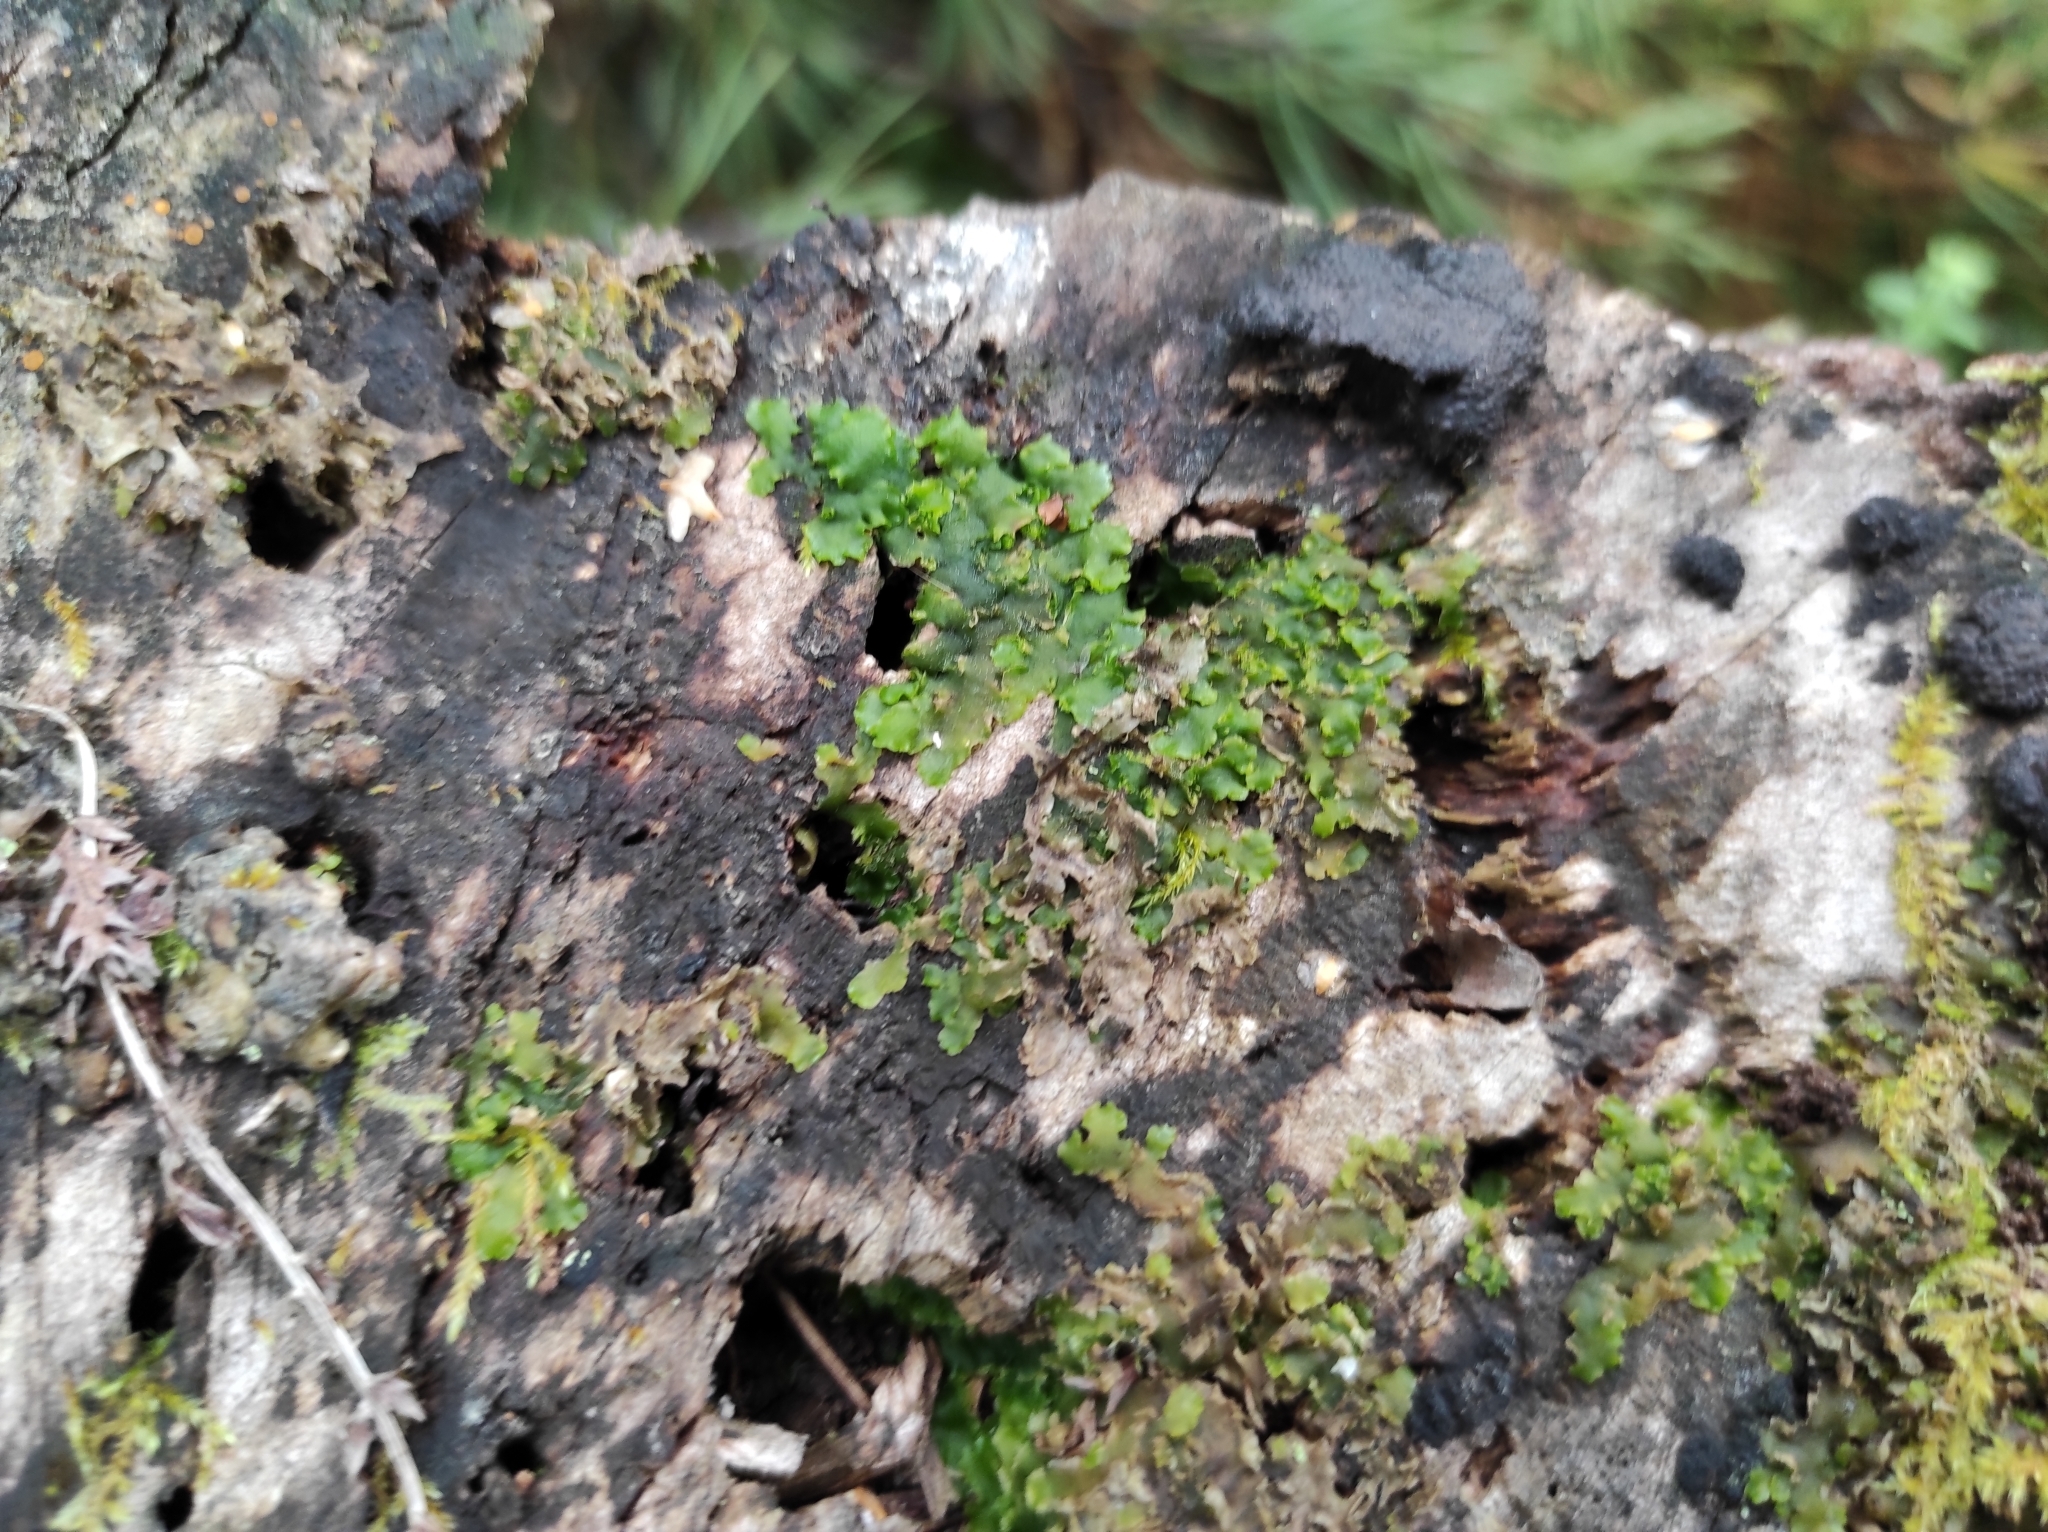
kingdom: Plantae
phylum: Marchantiophyta
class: Marchantiopsida
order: Marchantiales
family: Marchantiaceae
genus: Marchantia
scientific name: Marchantia polymorpha
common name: Common liverwort
